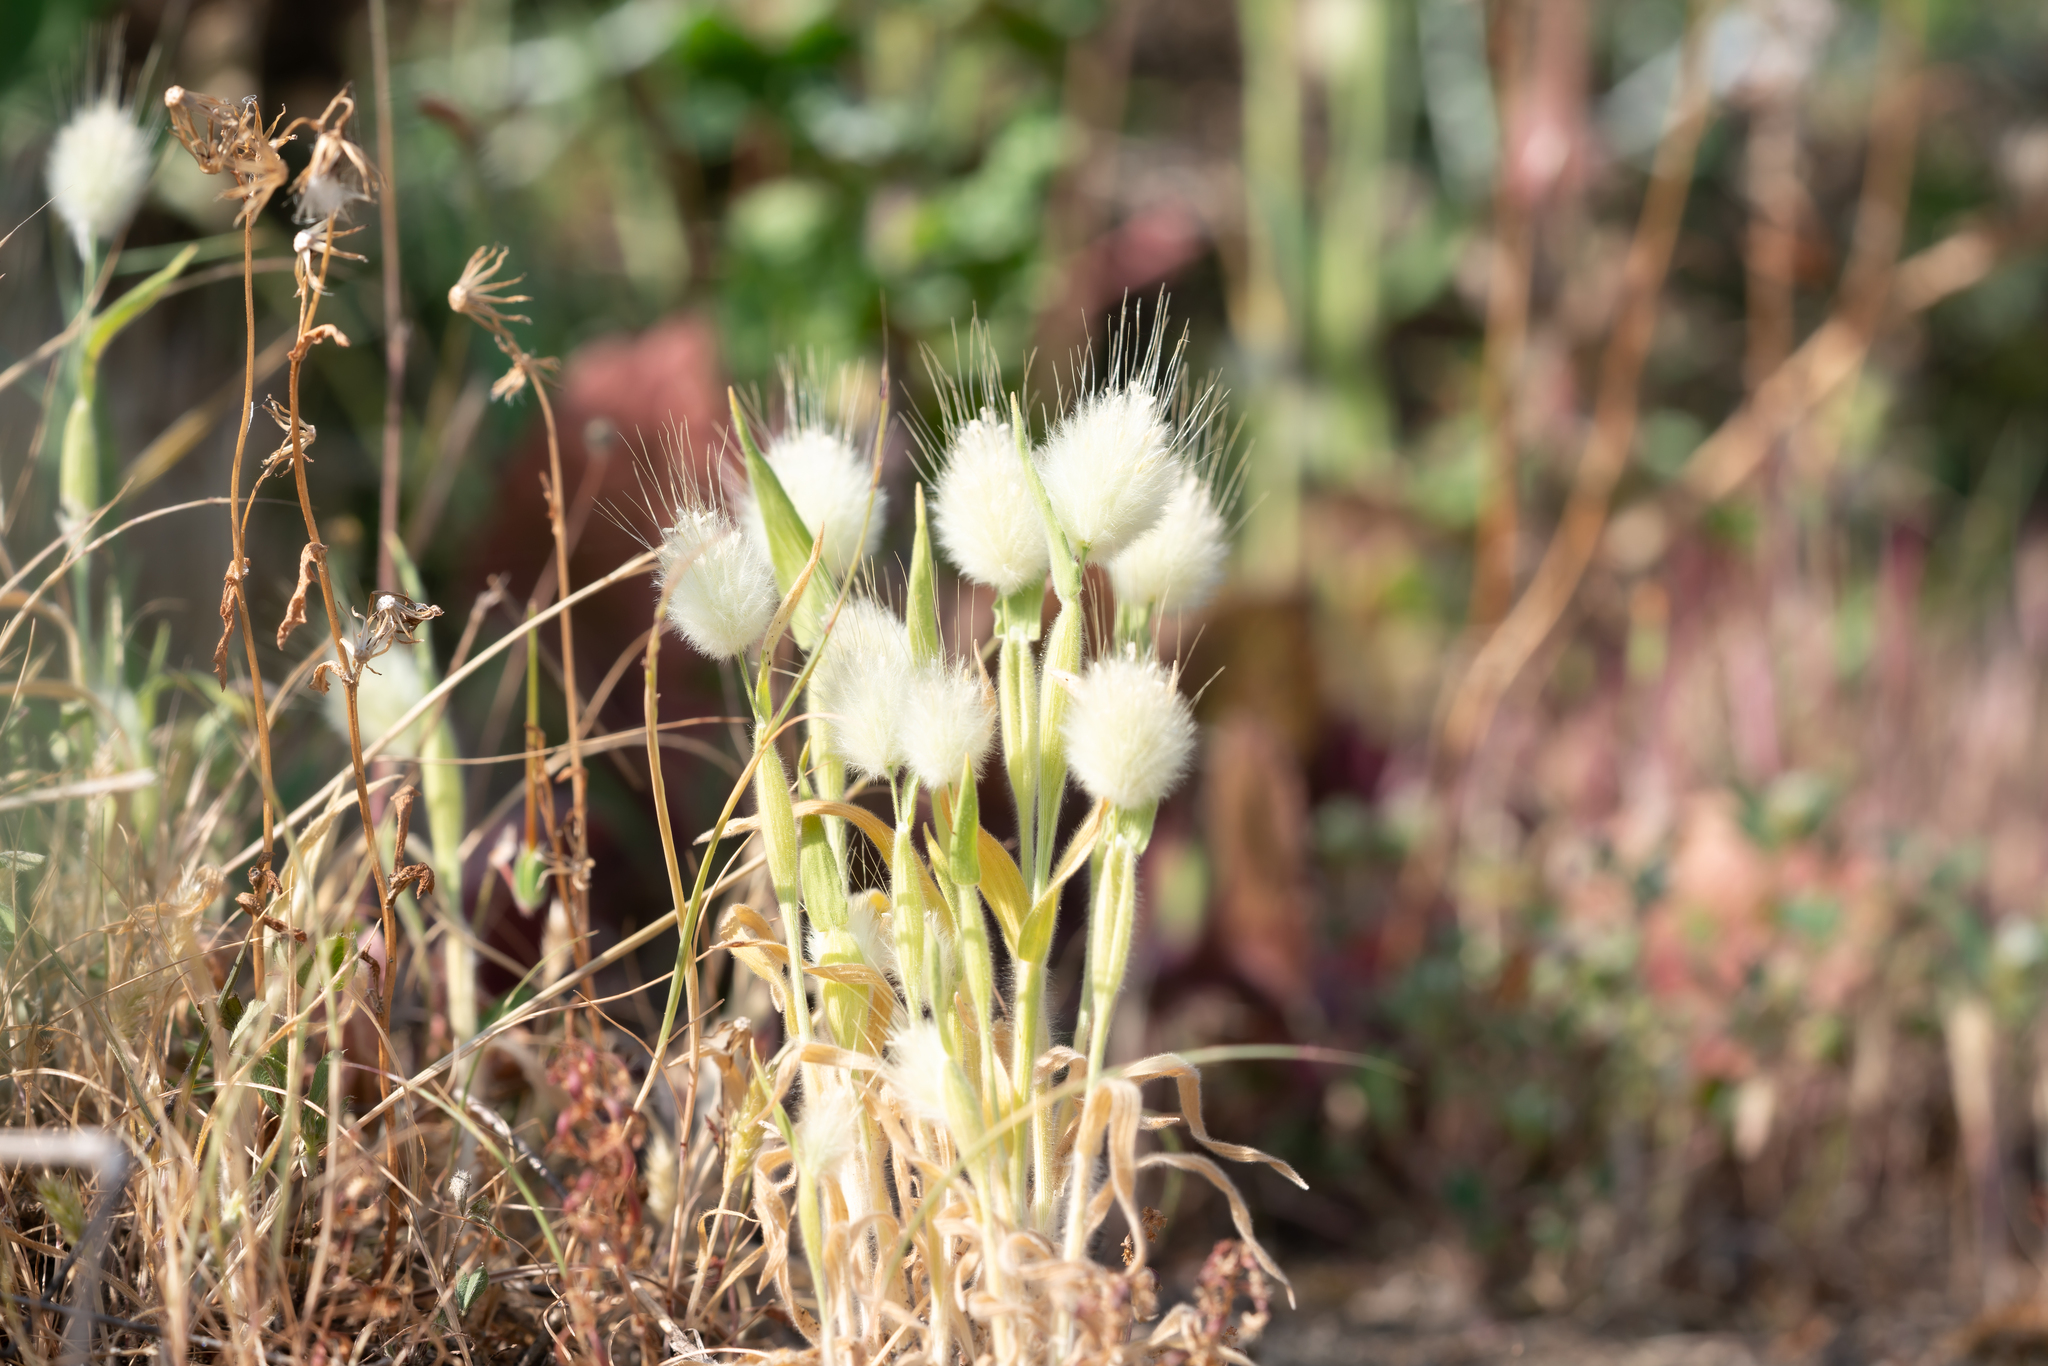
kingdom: Plantae
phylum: Tracheophyta
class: Liliopsida
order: Poales
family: Poaceae
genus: Lagurus
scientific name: Lagurus ovatus
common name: Hare's-tail
